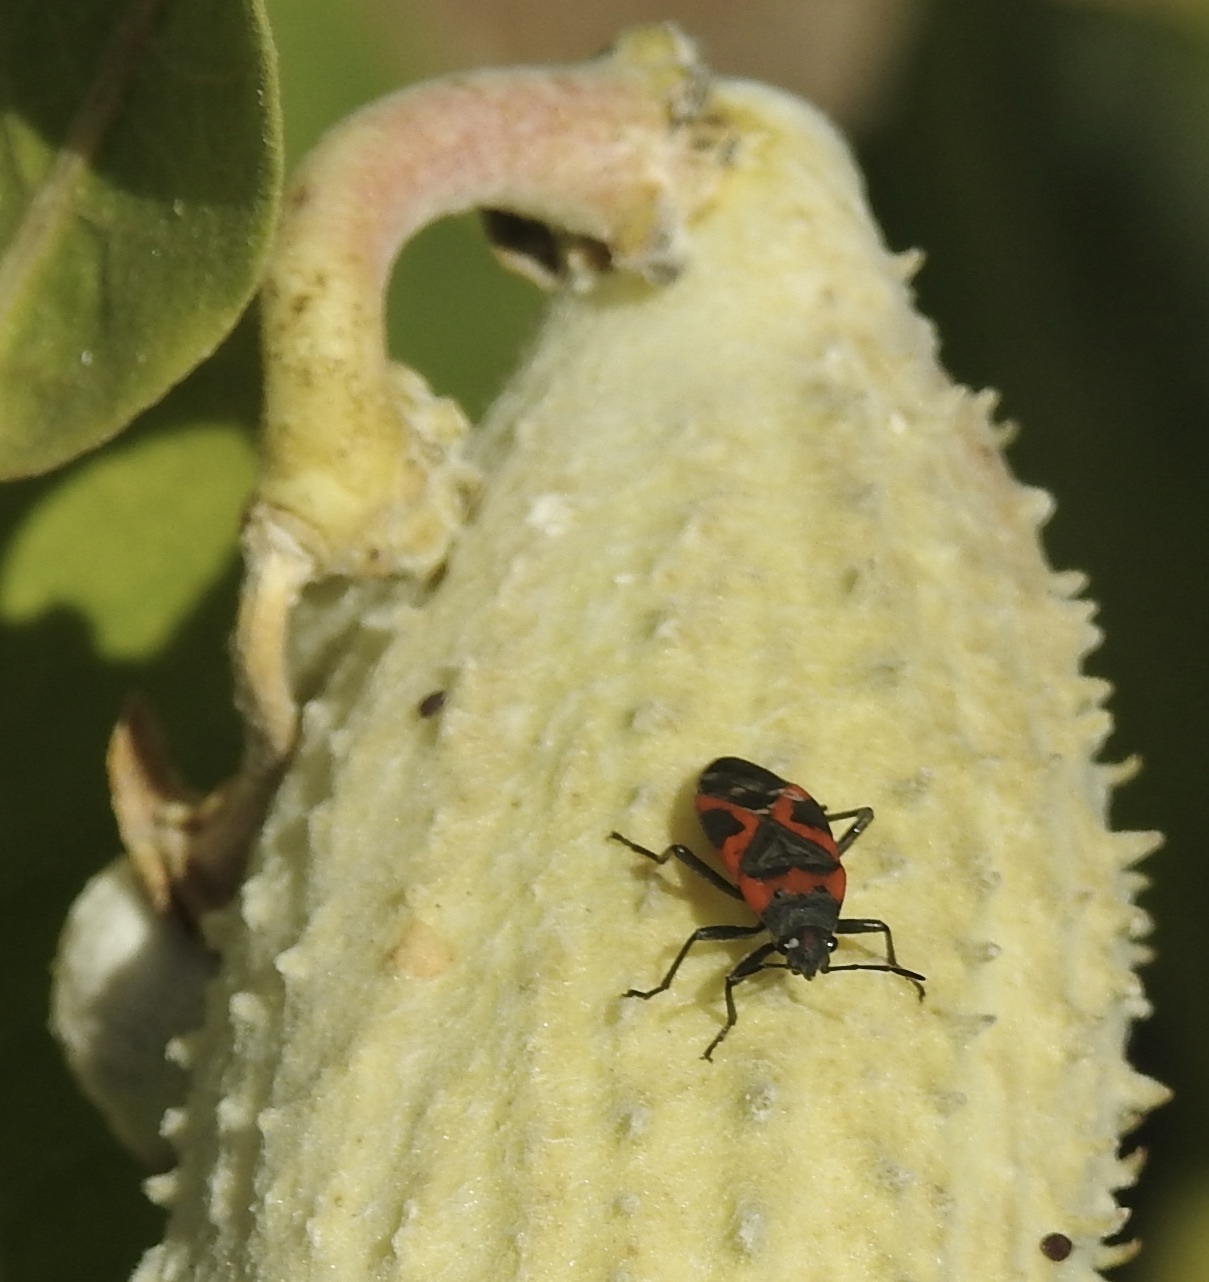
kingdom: Animalia
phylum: Arthropoda
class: Insecta
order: Hemiptera
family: Lygaeidae
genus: Lygaeus
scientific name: Lygaeus kalmii
